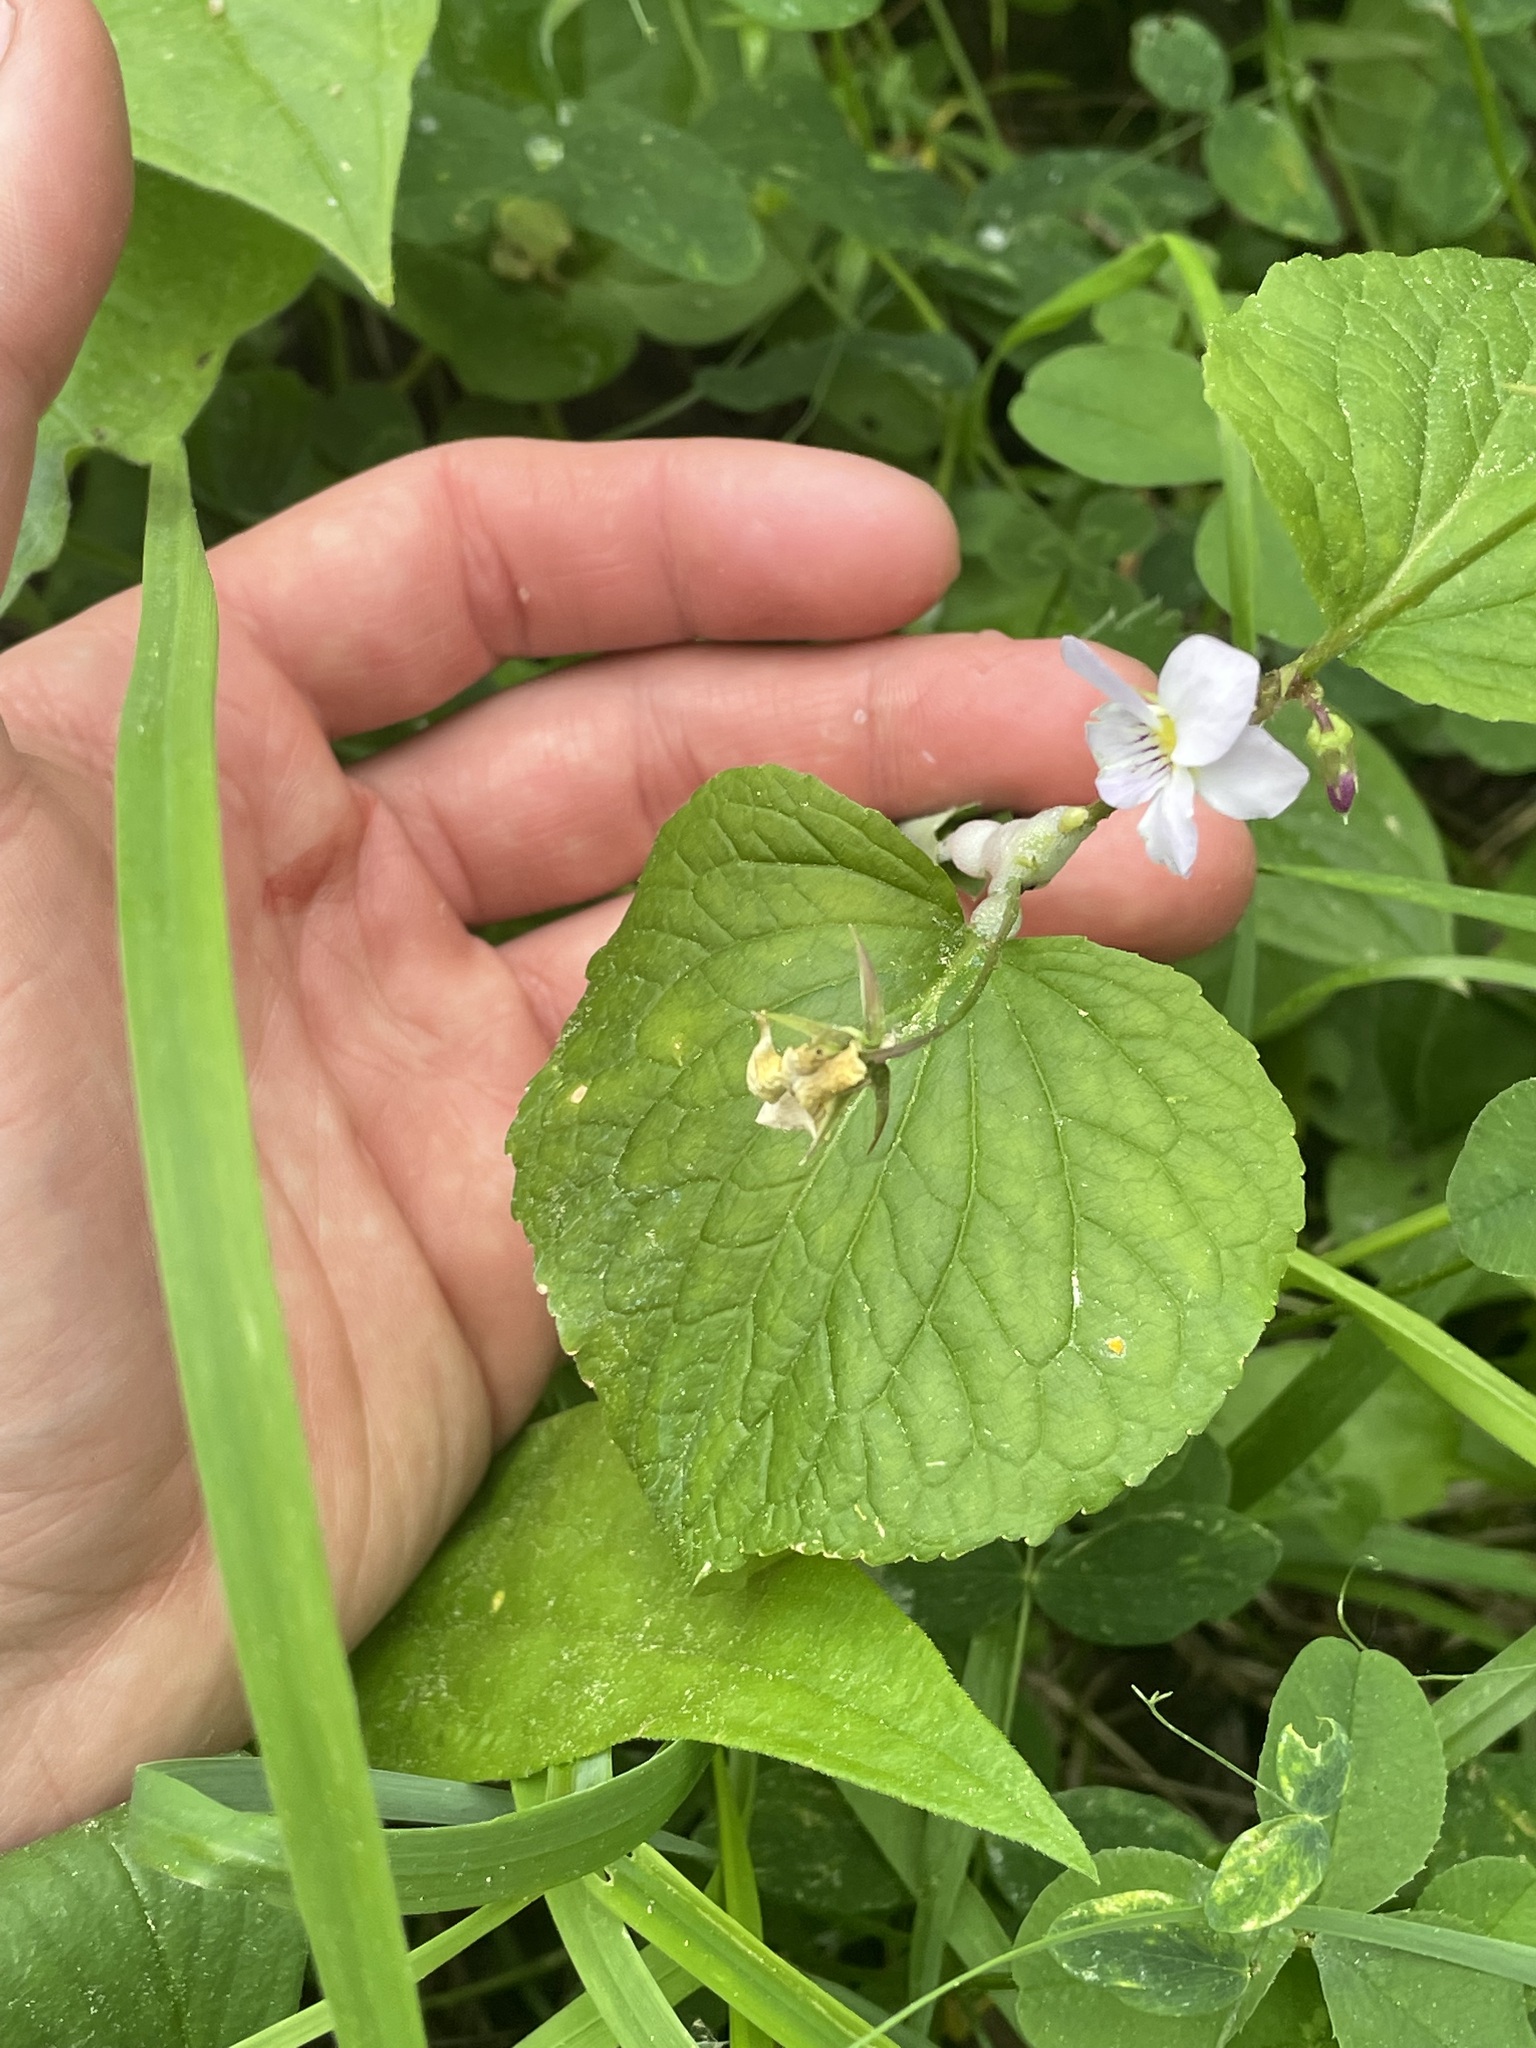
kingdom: Plantae
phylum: Tracheophyta
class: Magnoliopsida
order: Malpighiales
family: Violaceae
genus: Viola
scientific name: Viola canadensis
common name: Canada violet
